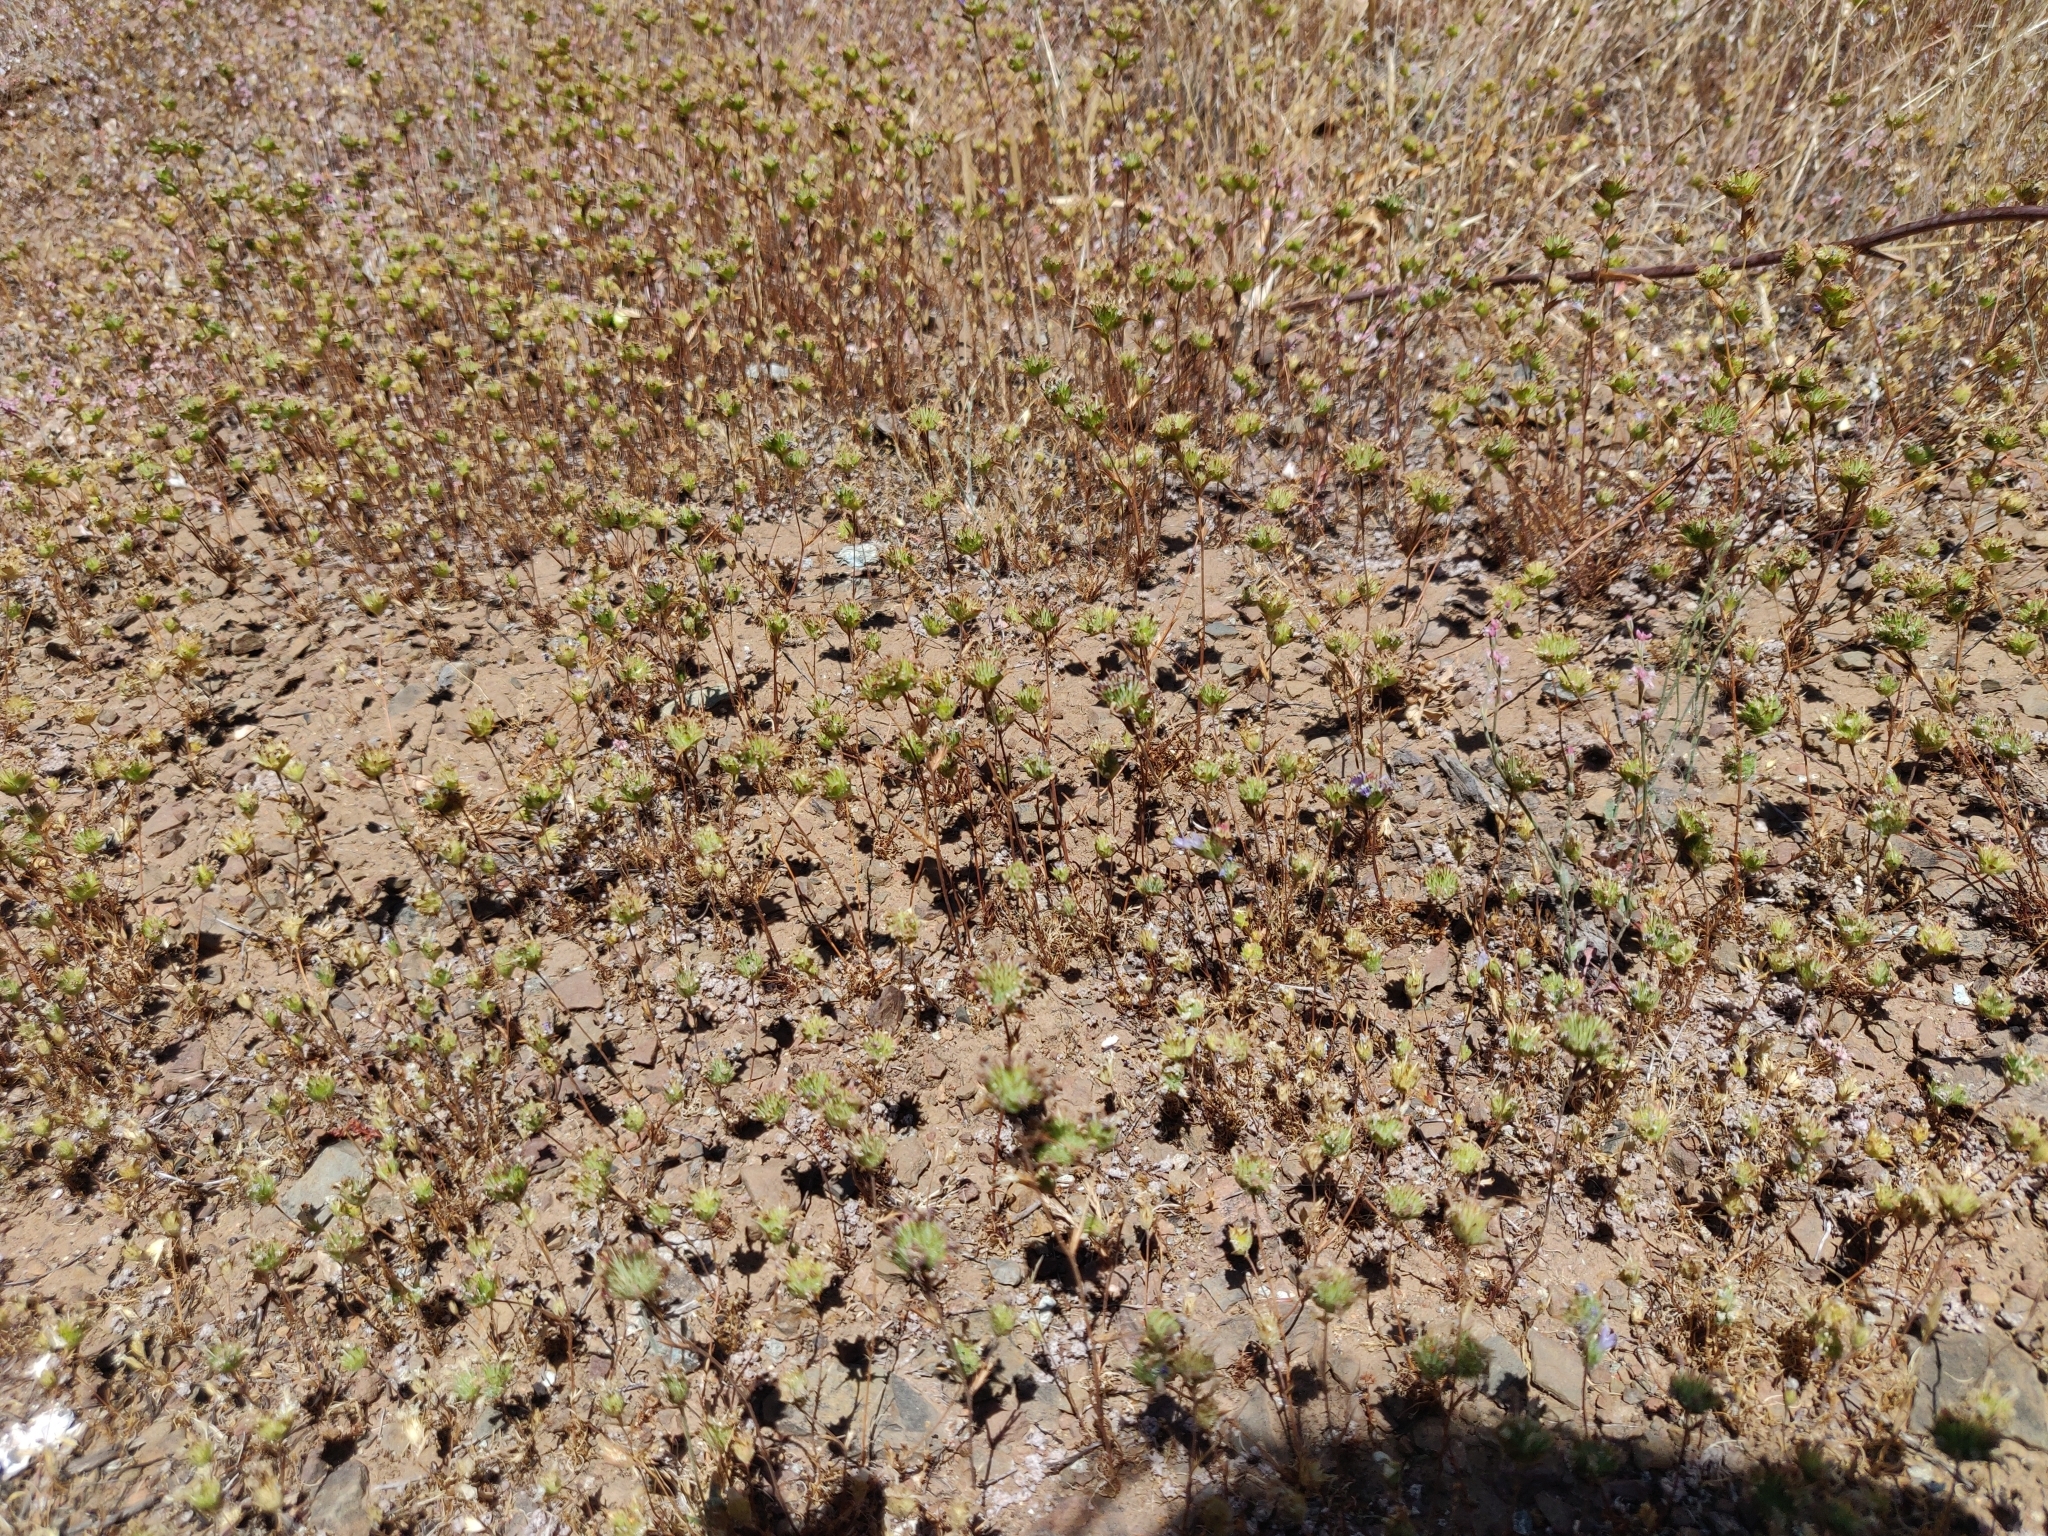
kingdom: Plantae
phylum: Tracheophyta
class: Magnoliopsida
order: Ericales
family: Polemoniaceae
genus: Navarretia
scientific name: Navarretia heterodoxa
